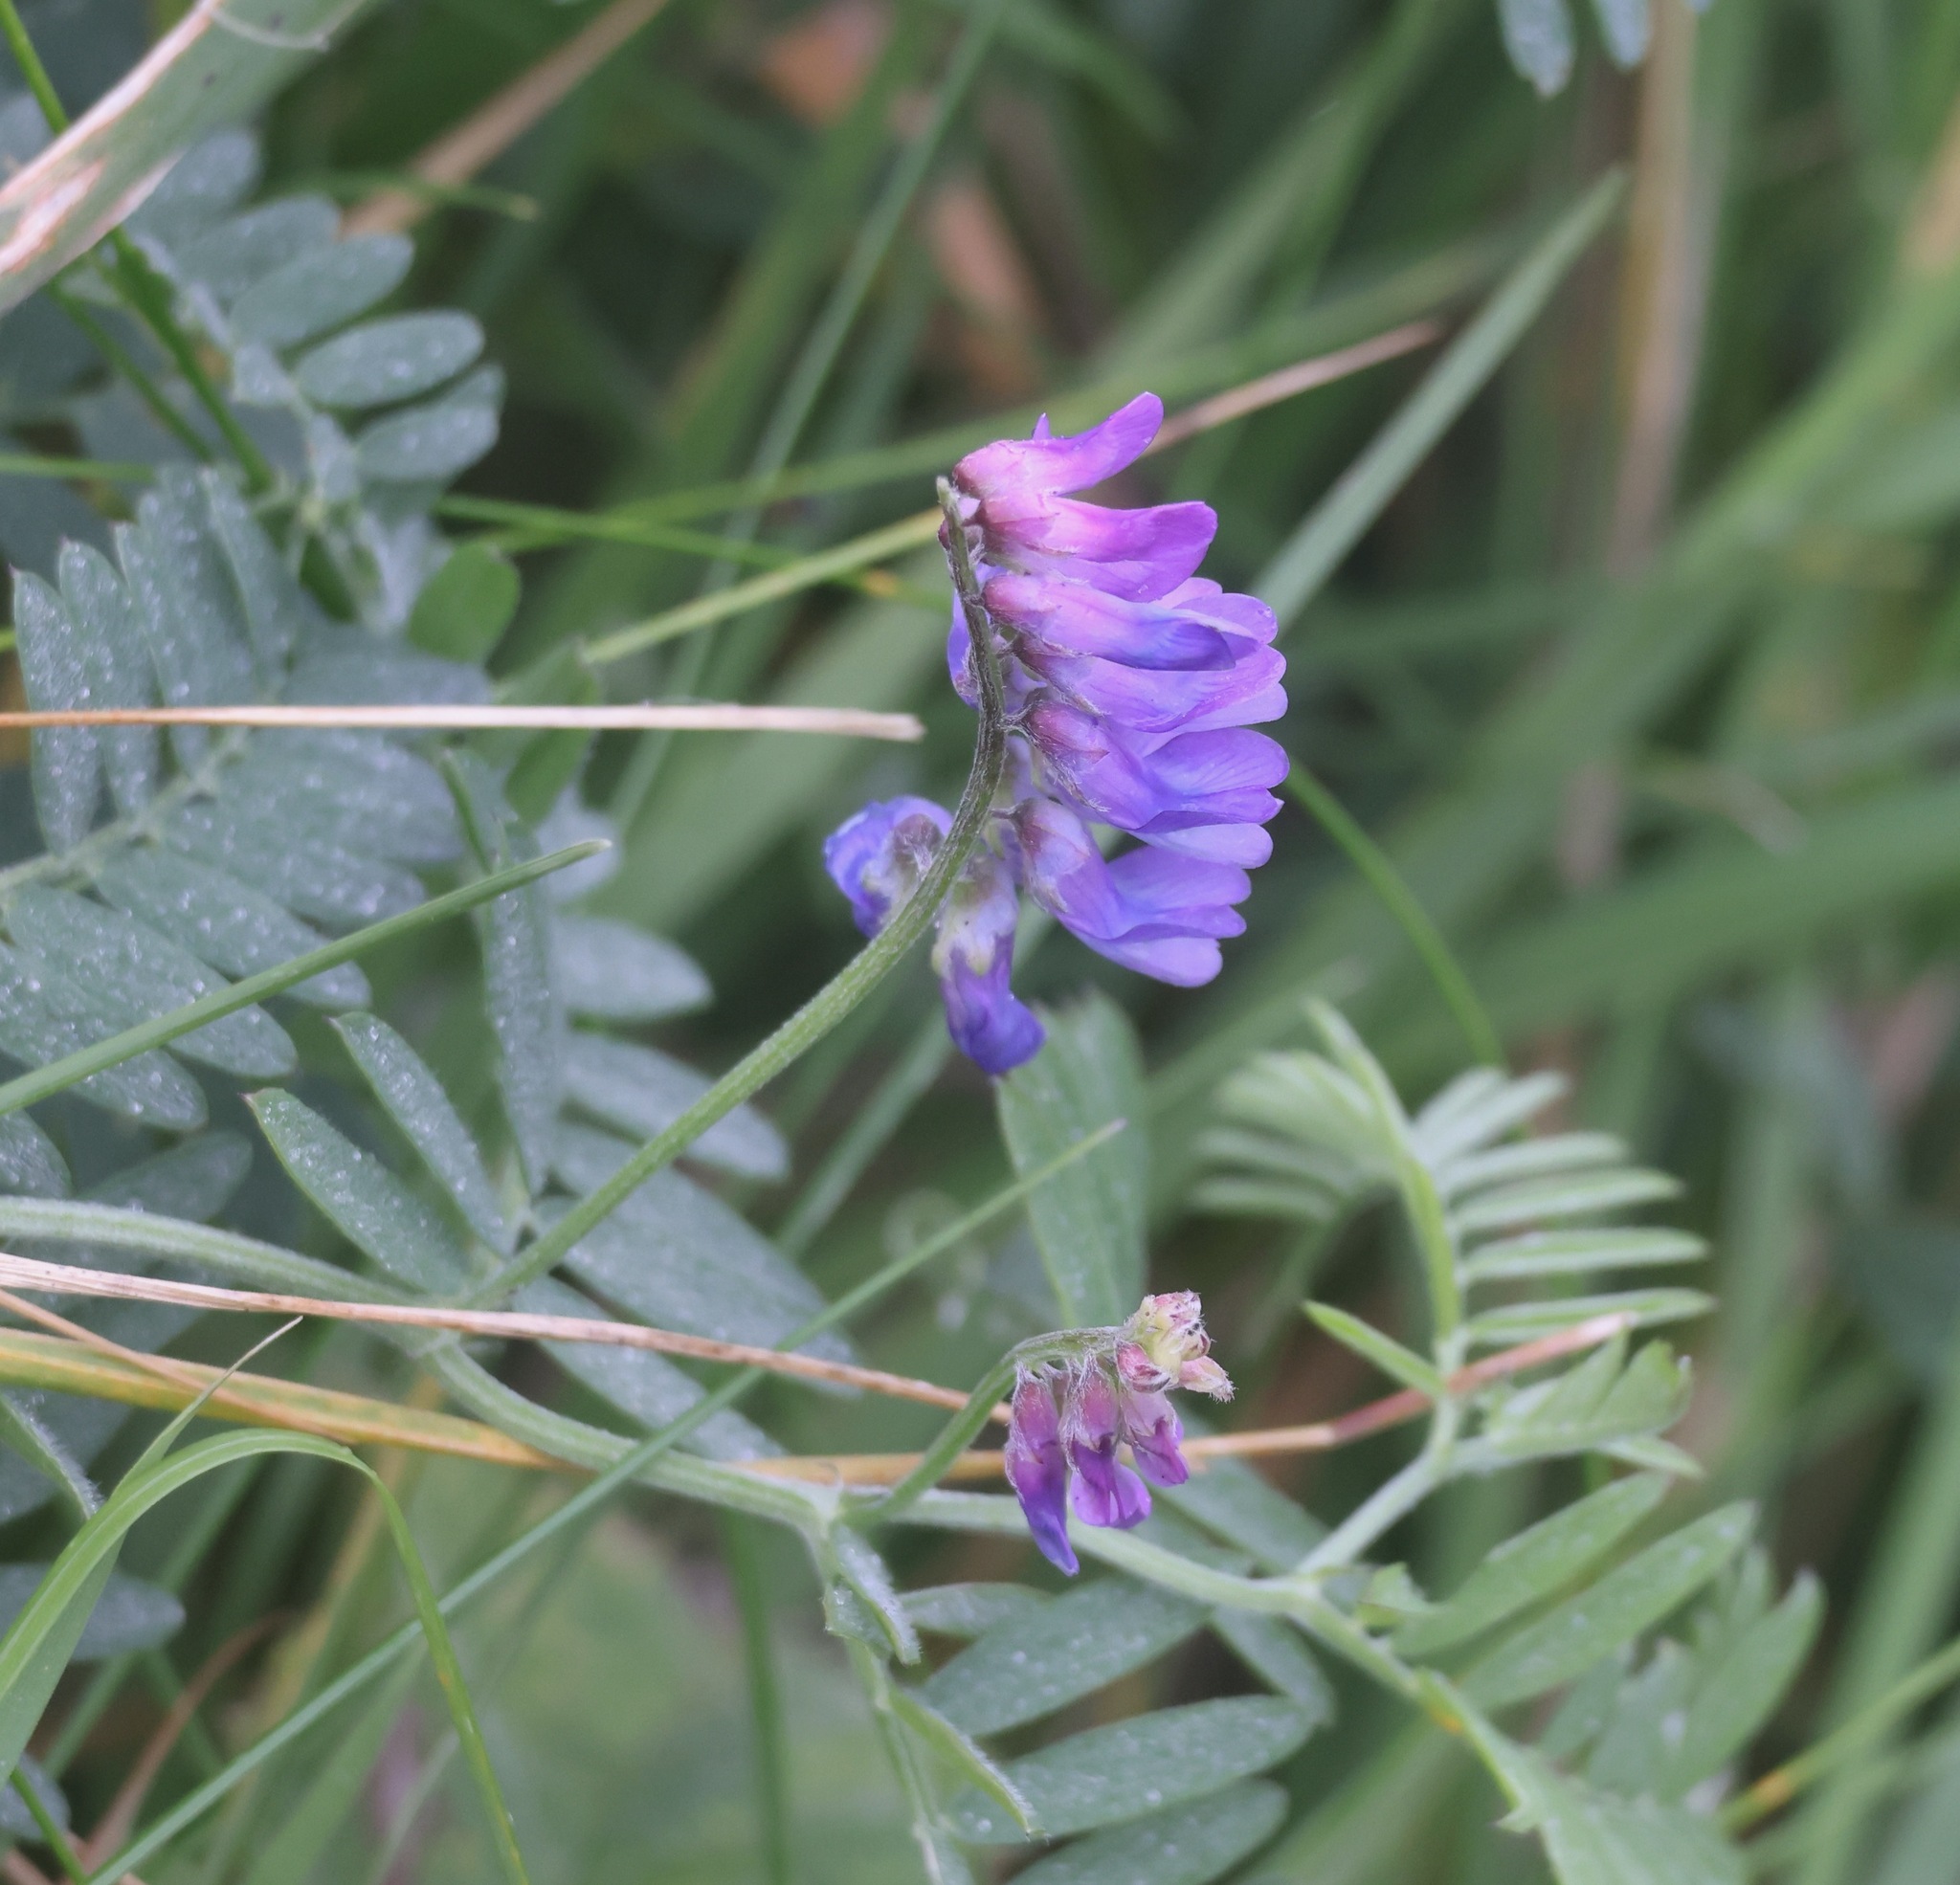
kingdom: Plantae
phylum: Tracheophyta
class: Magnoliopsida
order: Fabales
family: Fabaceae
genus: Vicia
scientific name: Vicia cracca
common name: Bird vetch
